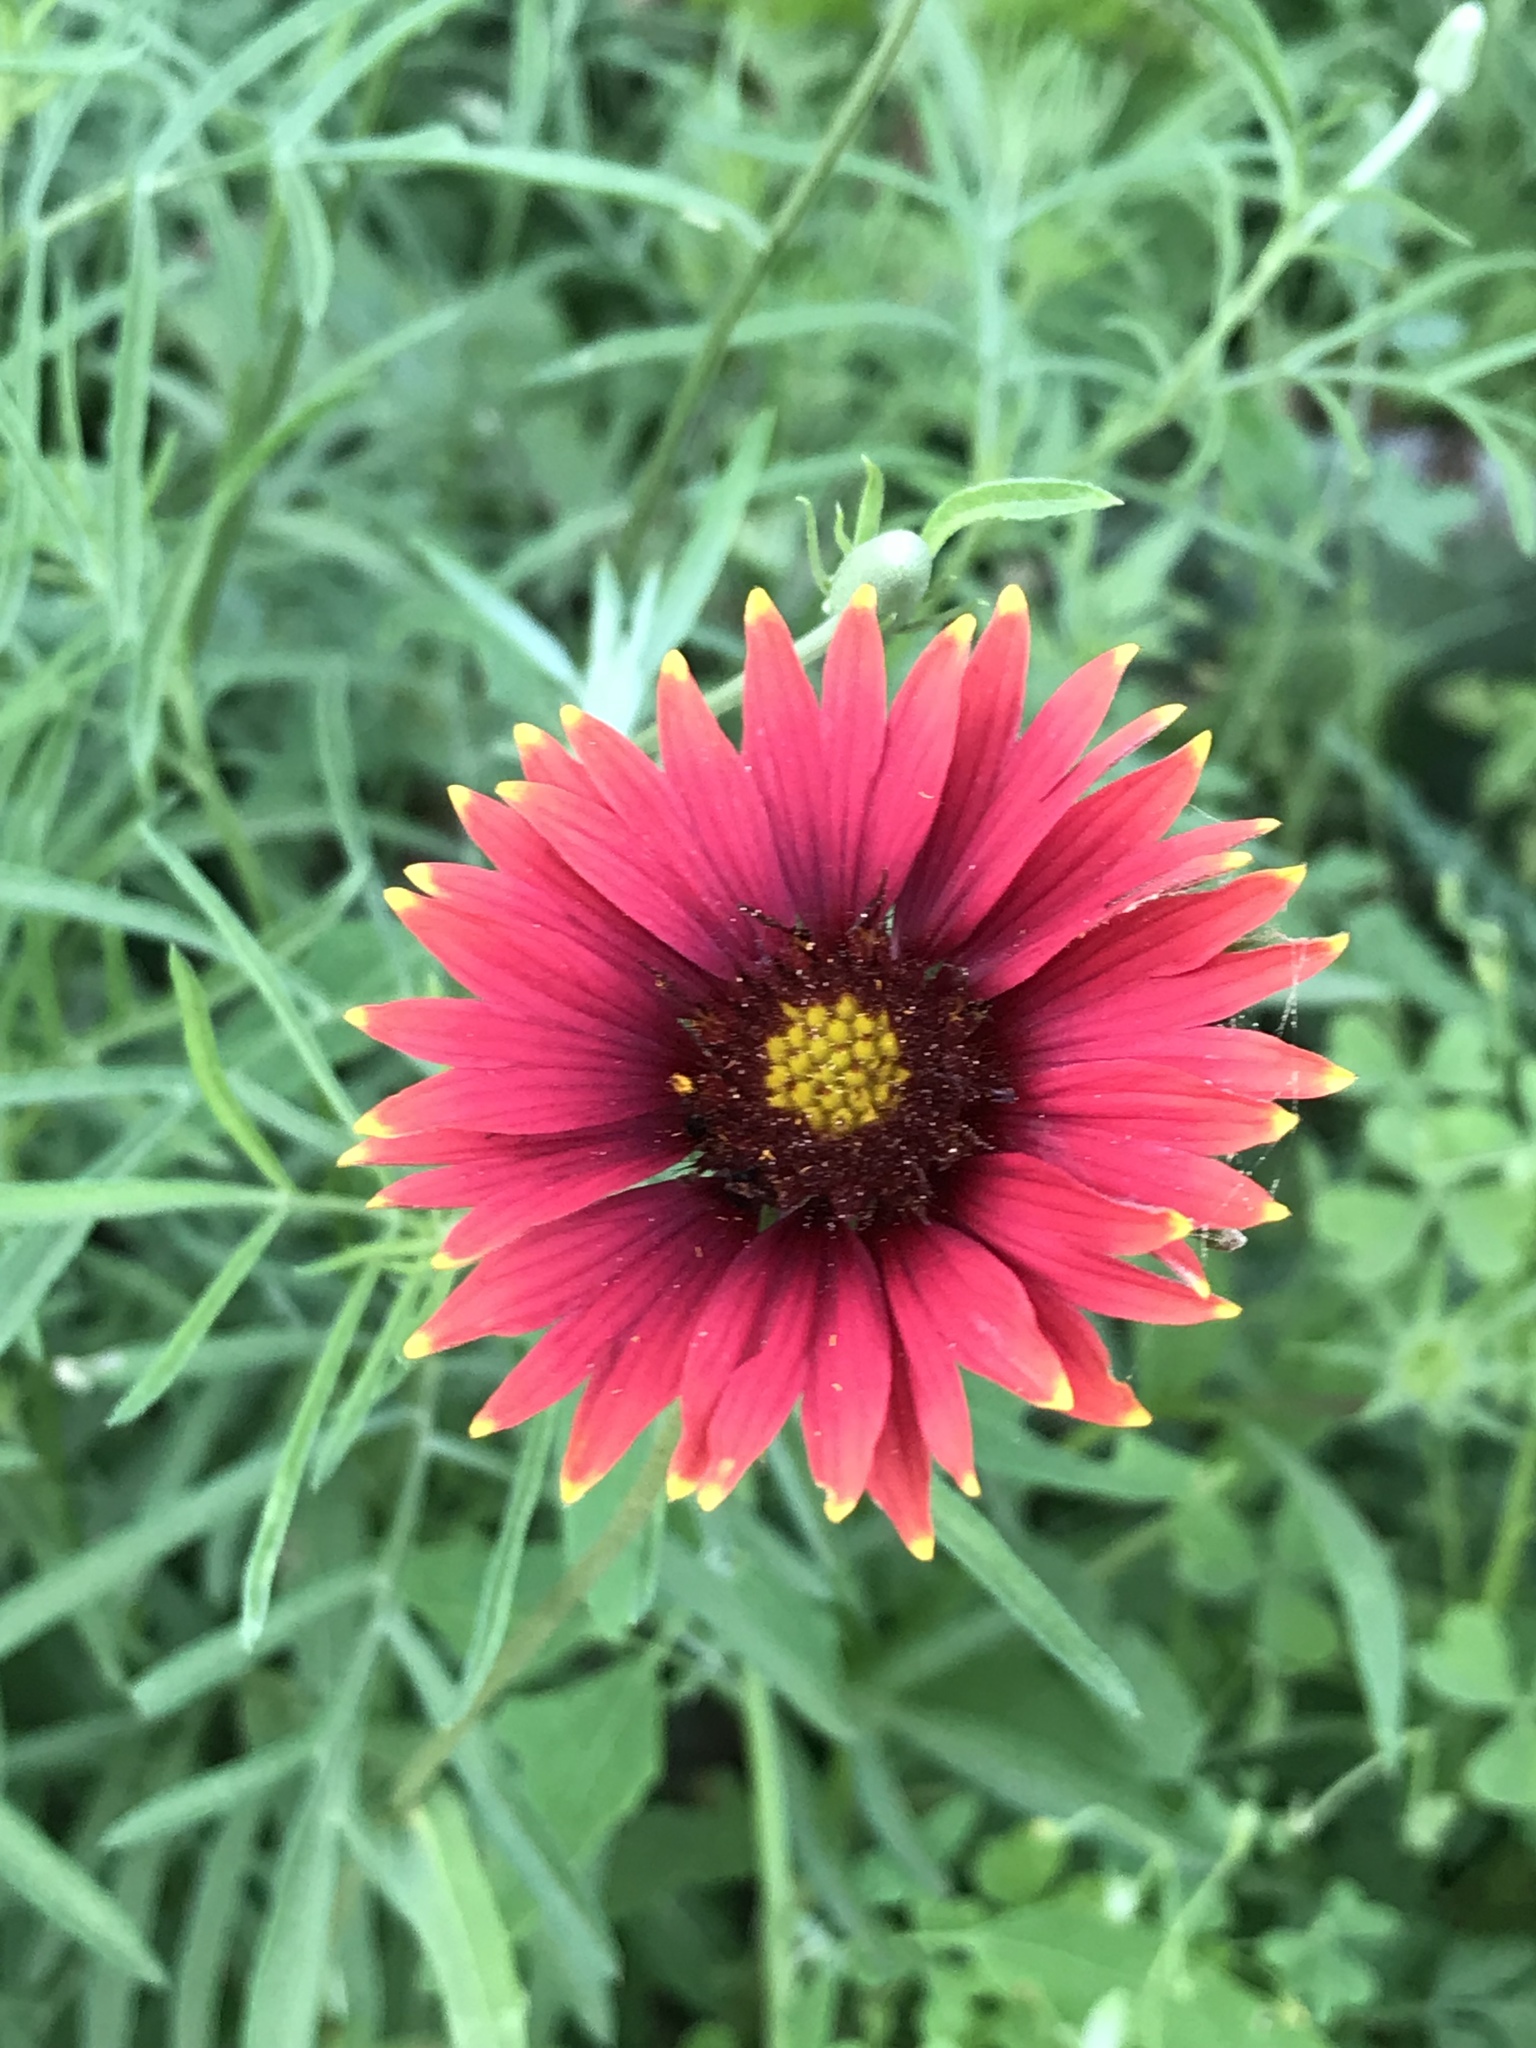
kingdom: Plantae
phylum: Tracheophyta
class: Magnoliopsida
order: Asterales
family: Asteraceae
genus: Gaillardia
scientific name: Gaillardia amblyodon
